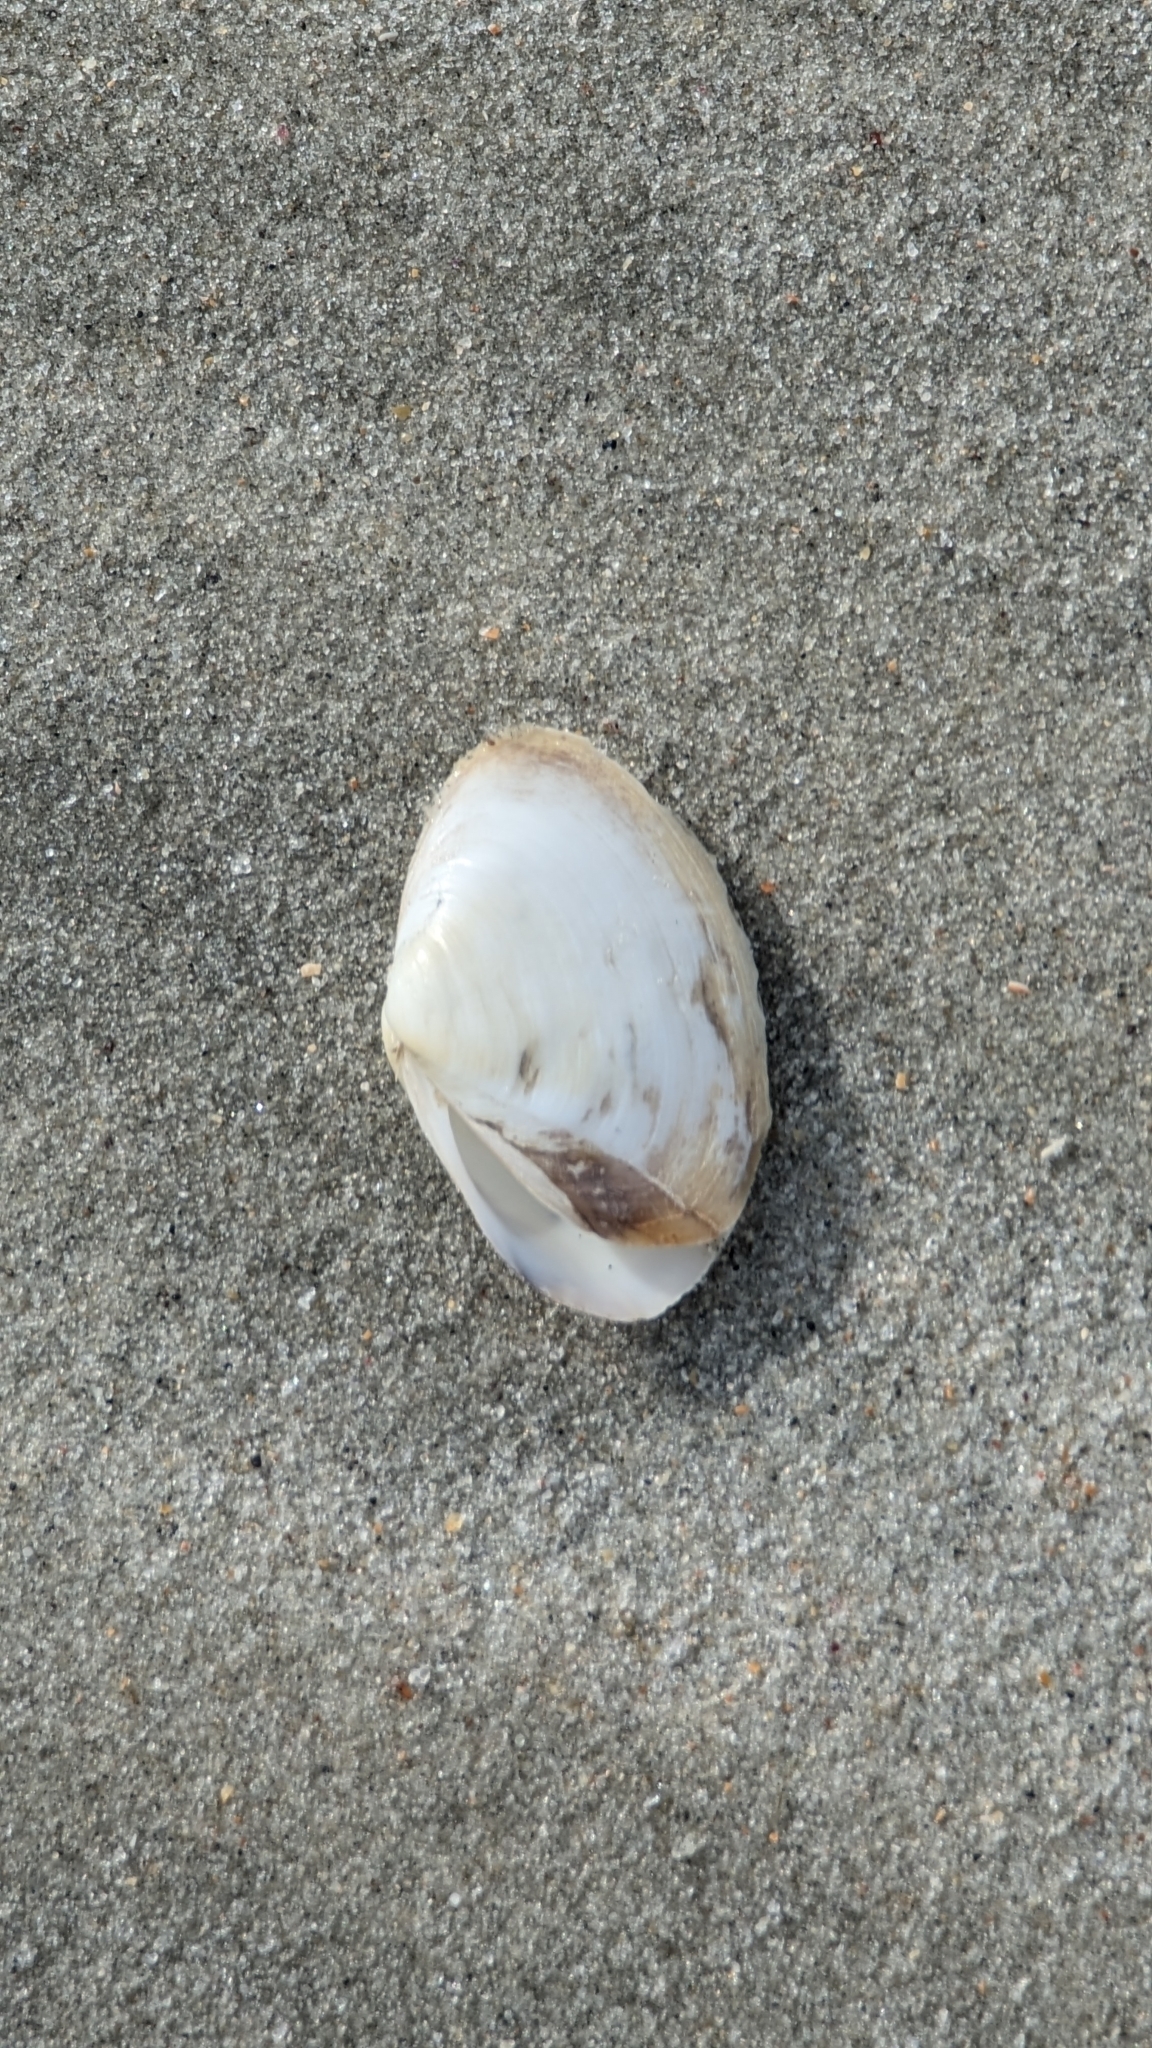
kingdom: Animalia
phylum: Mollusca
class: Bivalvia
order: Venerida
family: Mactridae
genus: Mactrotoma
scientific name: Mactrotoma fragilis
